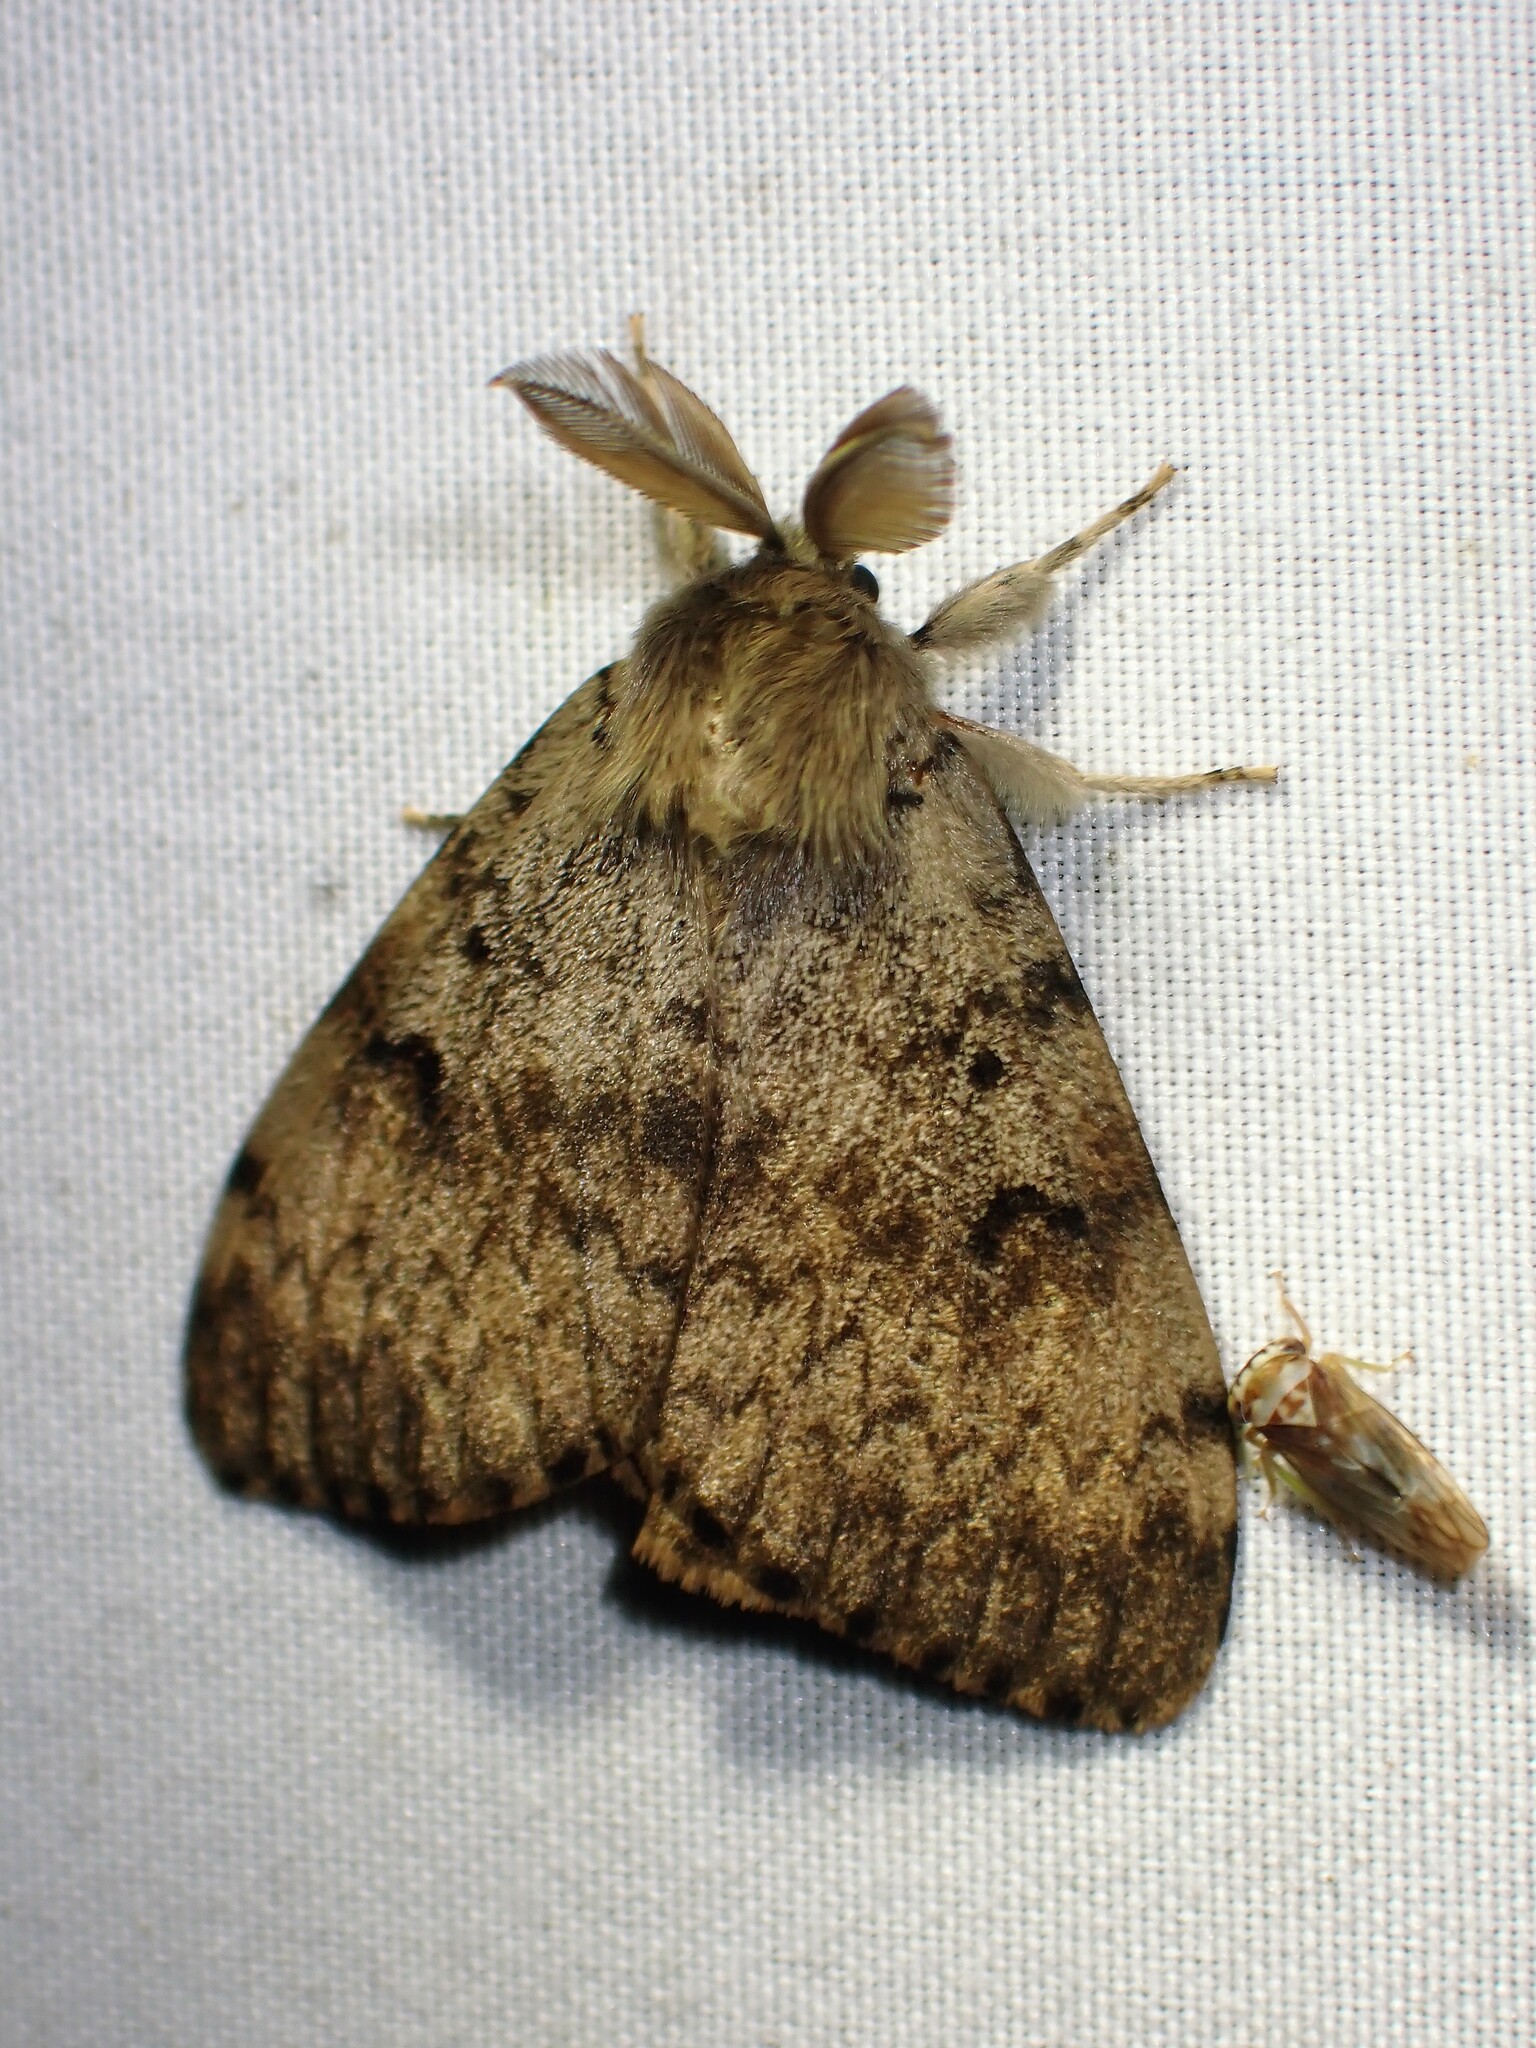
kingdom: Animalia
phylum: Arthropoda
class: Insecta
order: Lepidoptera
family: Erebidae
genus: Lymantria
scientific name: Lymantria dispar
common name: Gypsy moth
